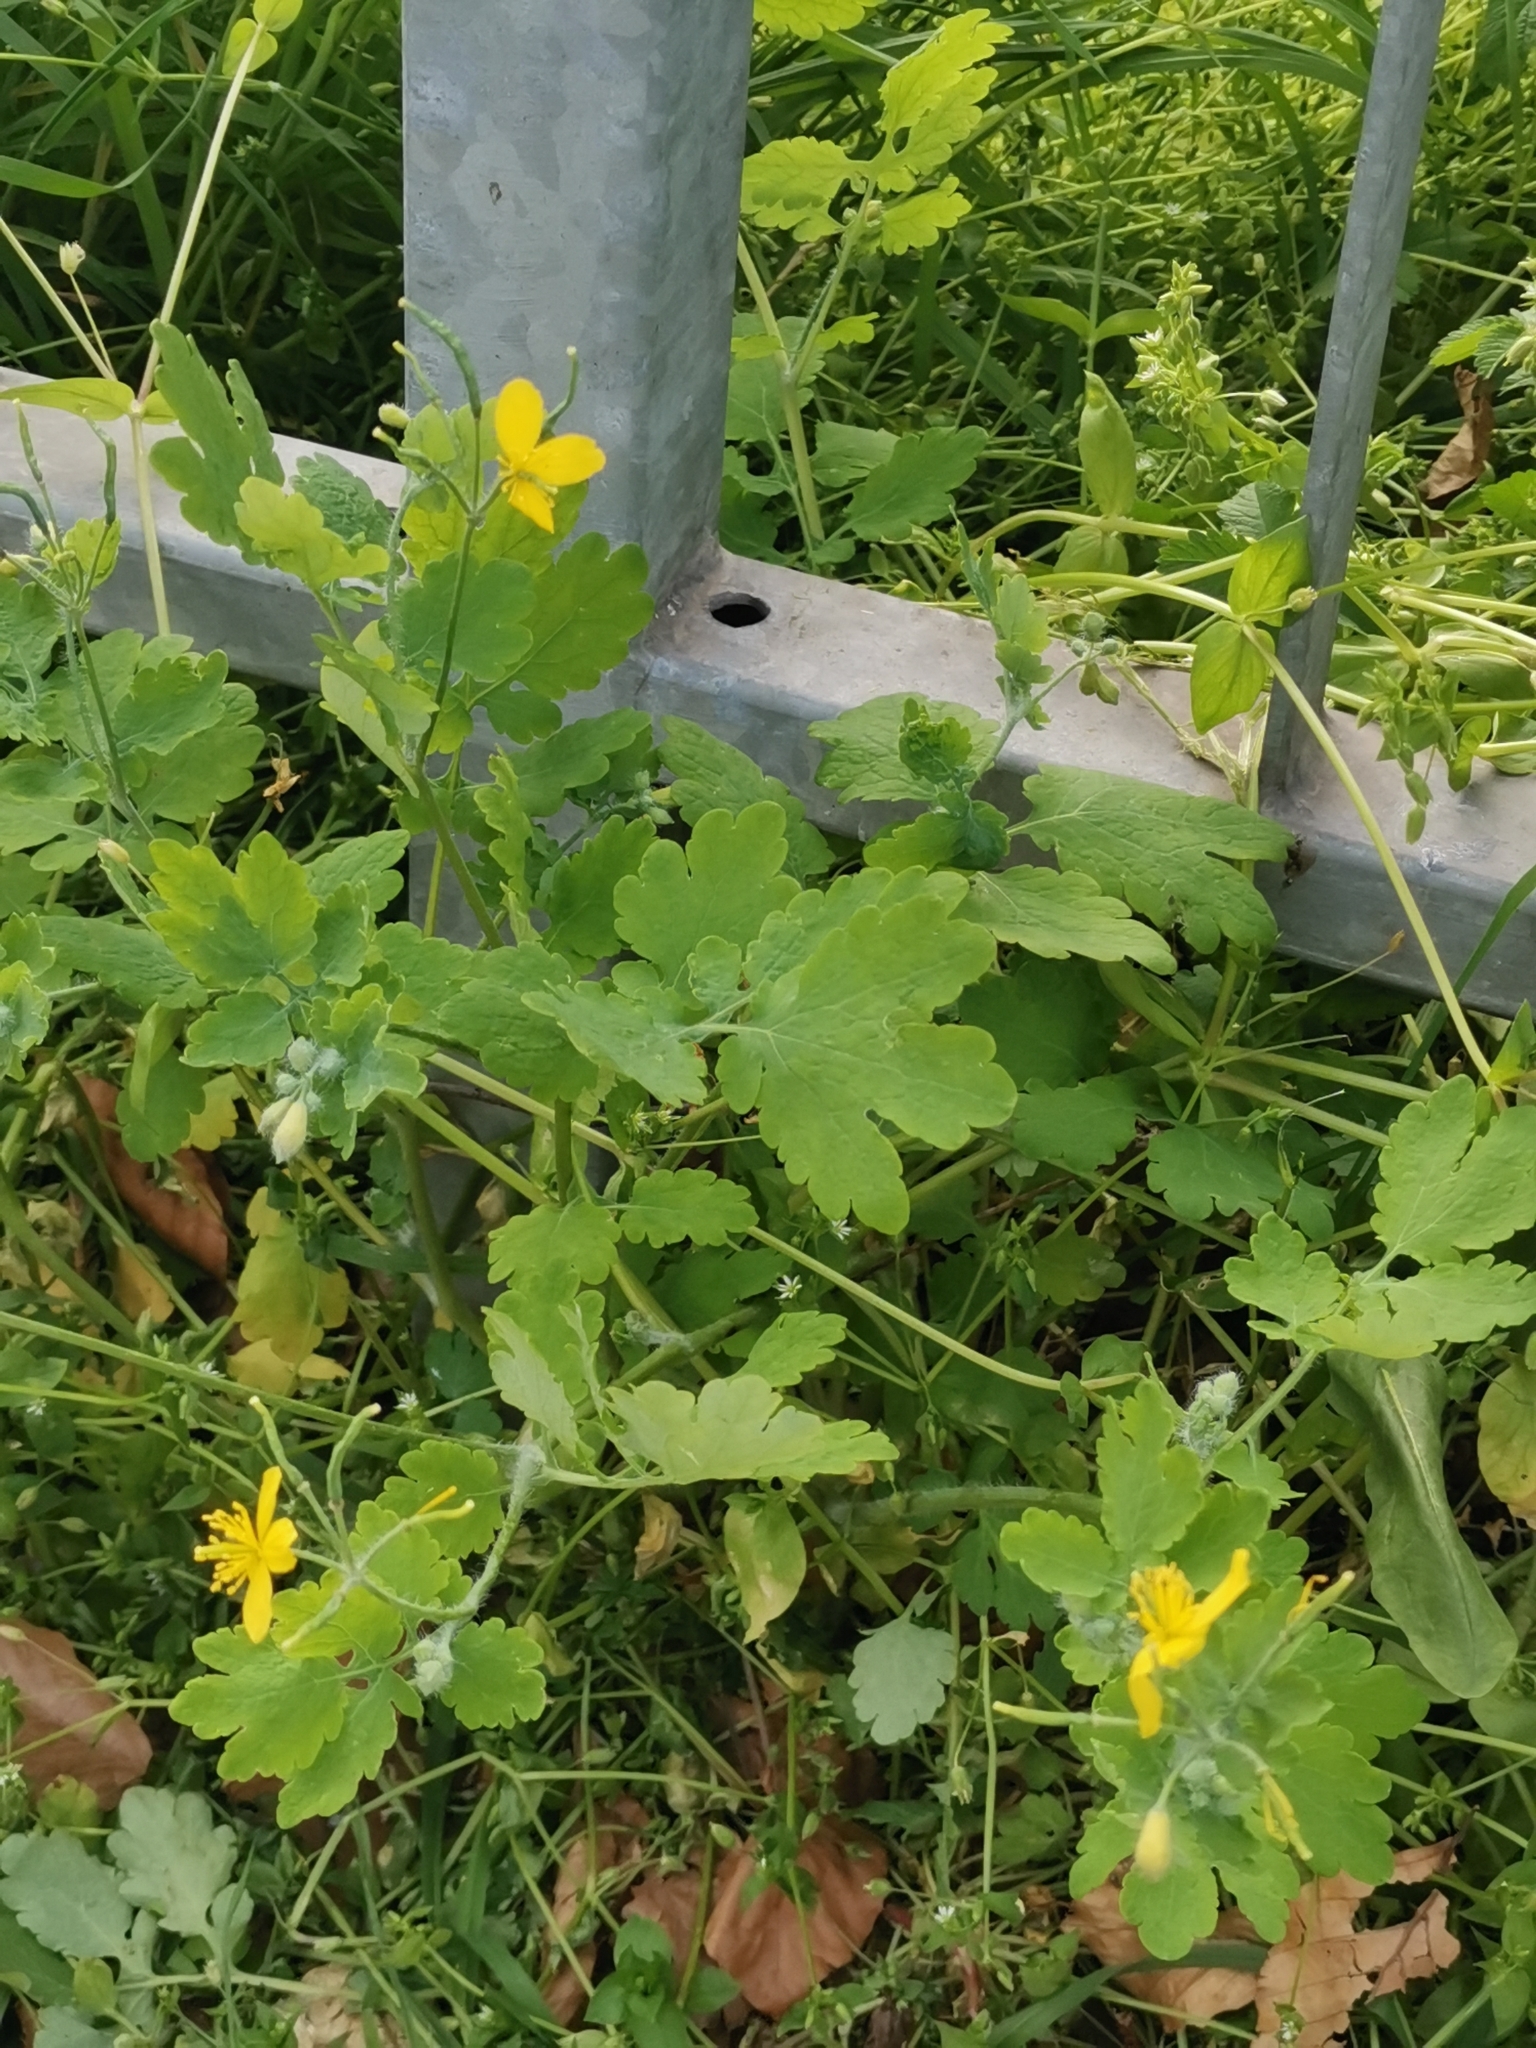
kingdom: Plantae
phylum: Tracheophyta
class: Magnoliopsida
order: Ranunculales
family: Papaveraceae
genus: Chelidonium
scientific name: Chelidonium majus
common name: Greater celandine
